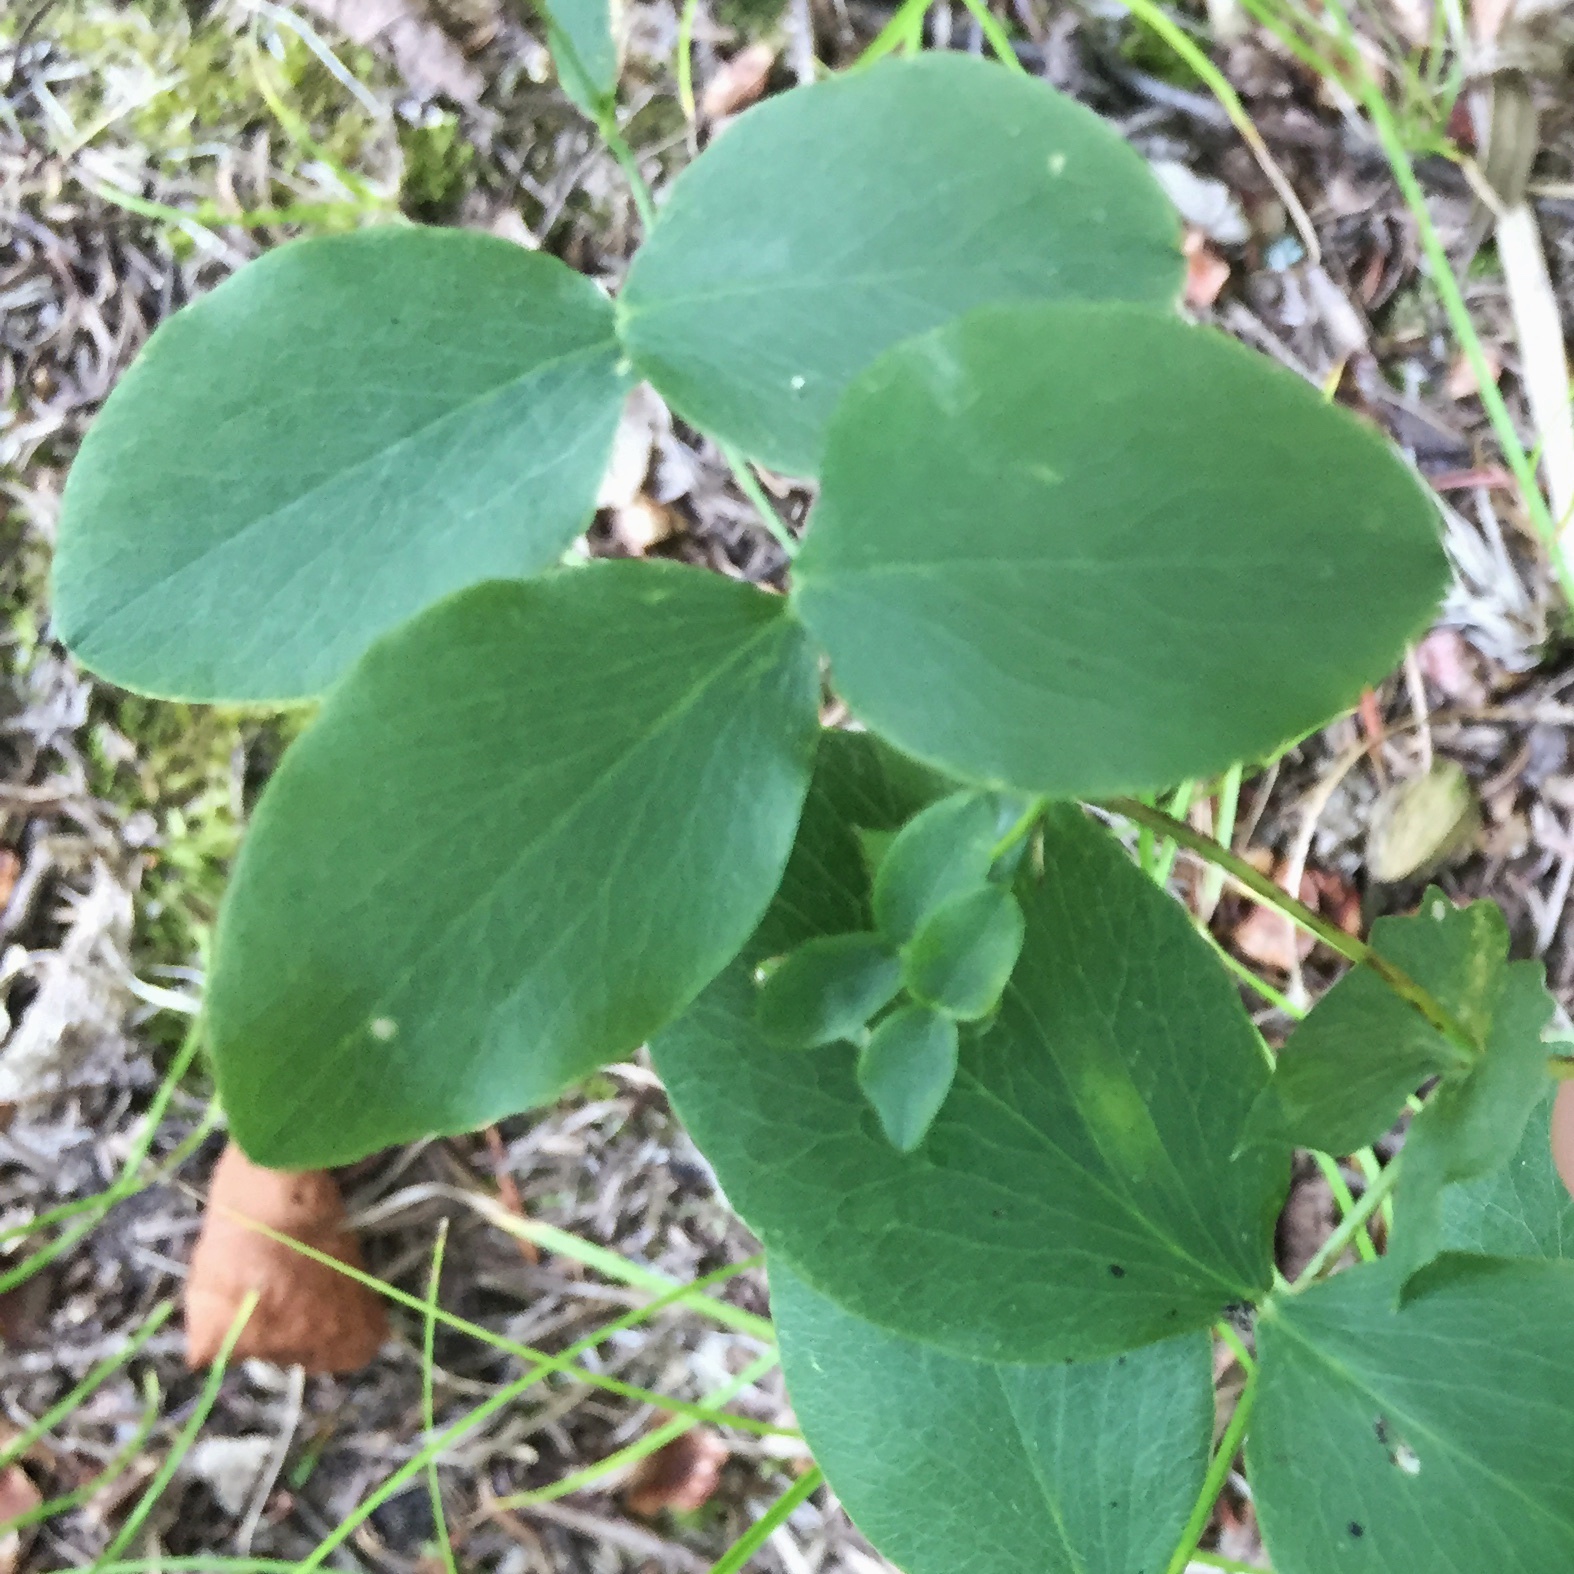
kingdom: Plantae
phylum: Tracheophyta
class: Magnoliopsida
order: Fabales
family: Fabaceae
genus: Lathyrus
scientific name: Lathyrus ochroleucus
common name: Pale vetchling
